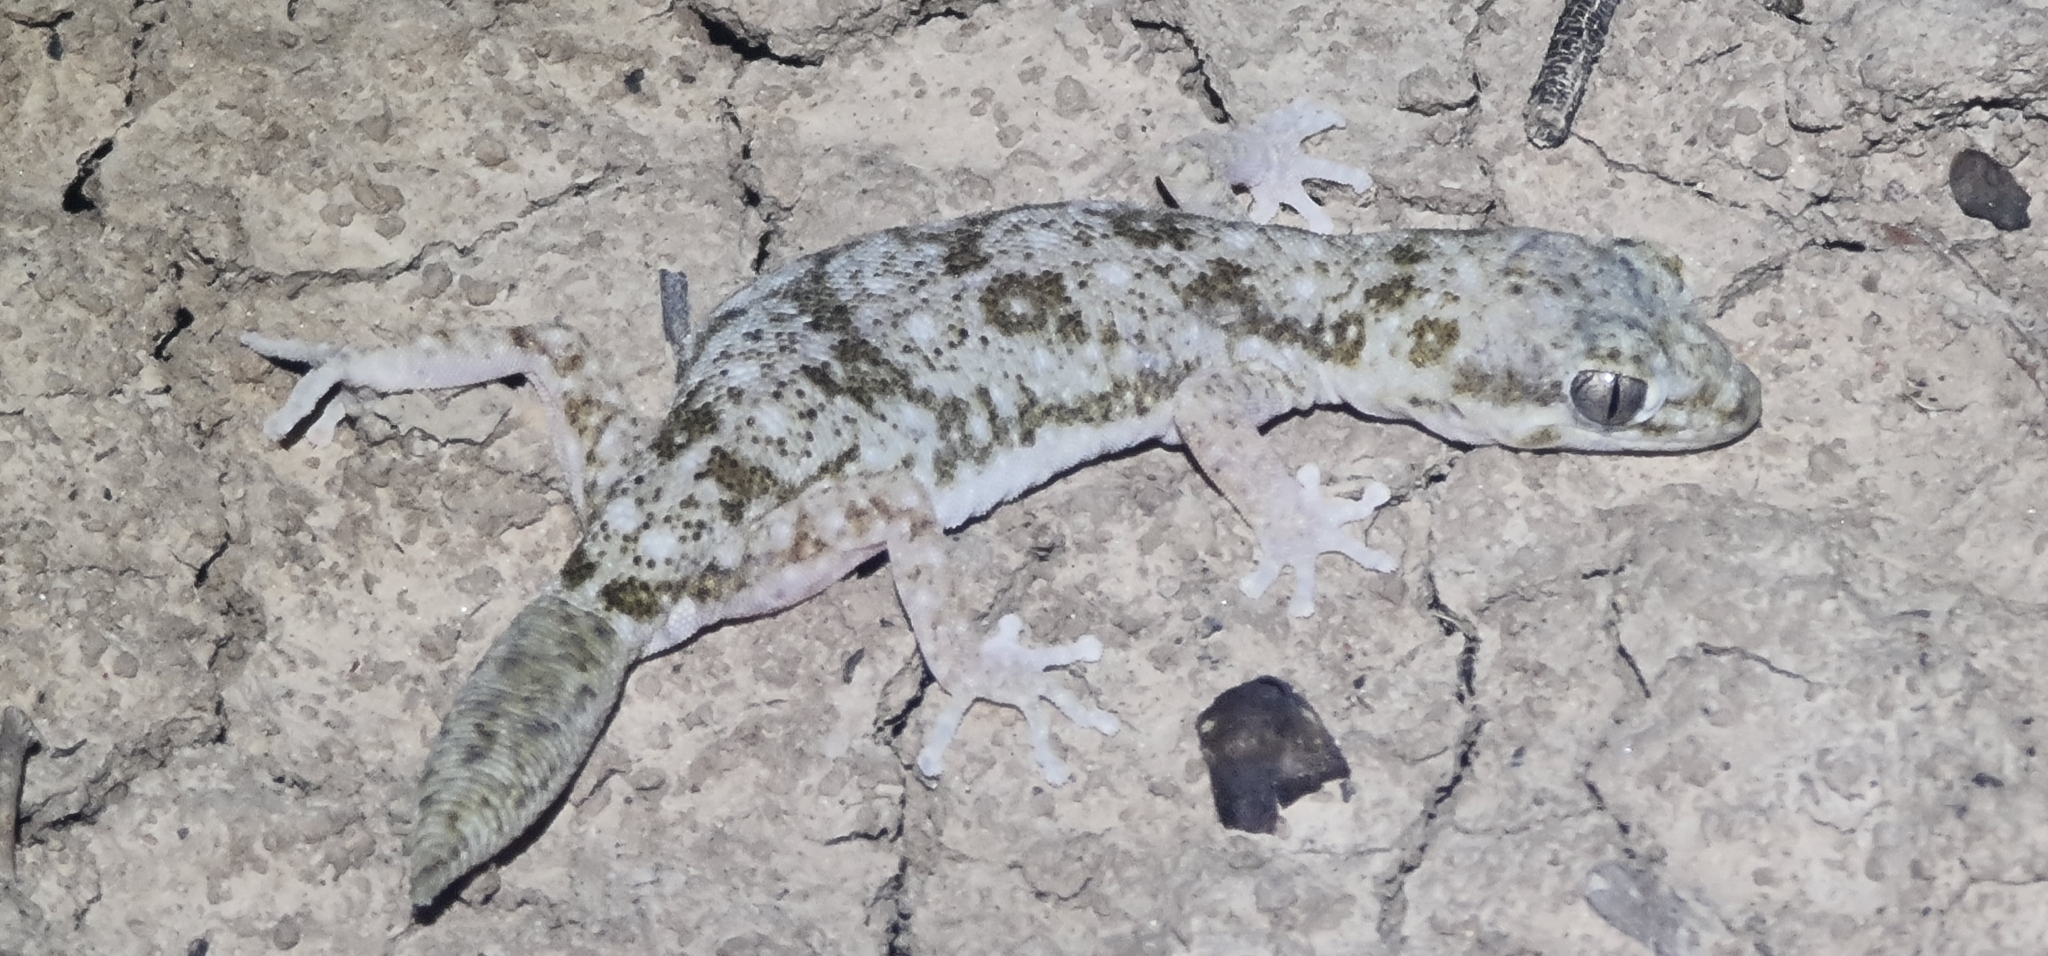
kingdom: Animalia
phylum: Chordata
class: Squamata
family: Diplodactylidae
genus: Diplodactylus
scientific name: Diplodactylus tessellatus
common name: Tesselated gecko
